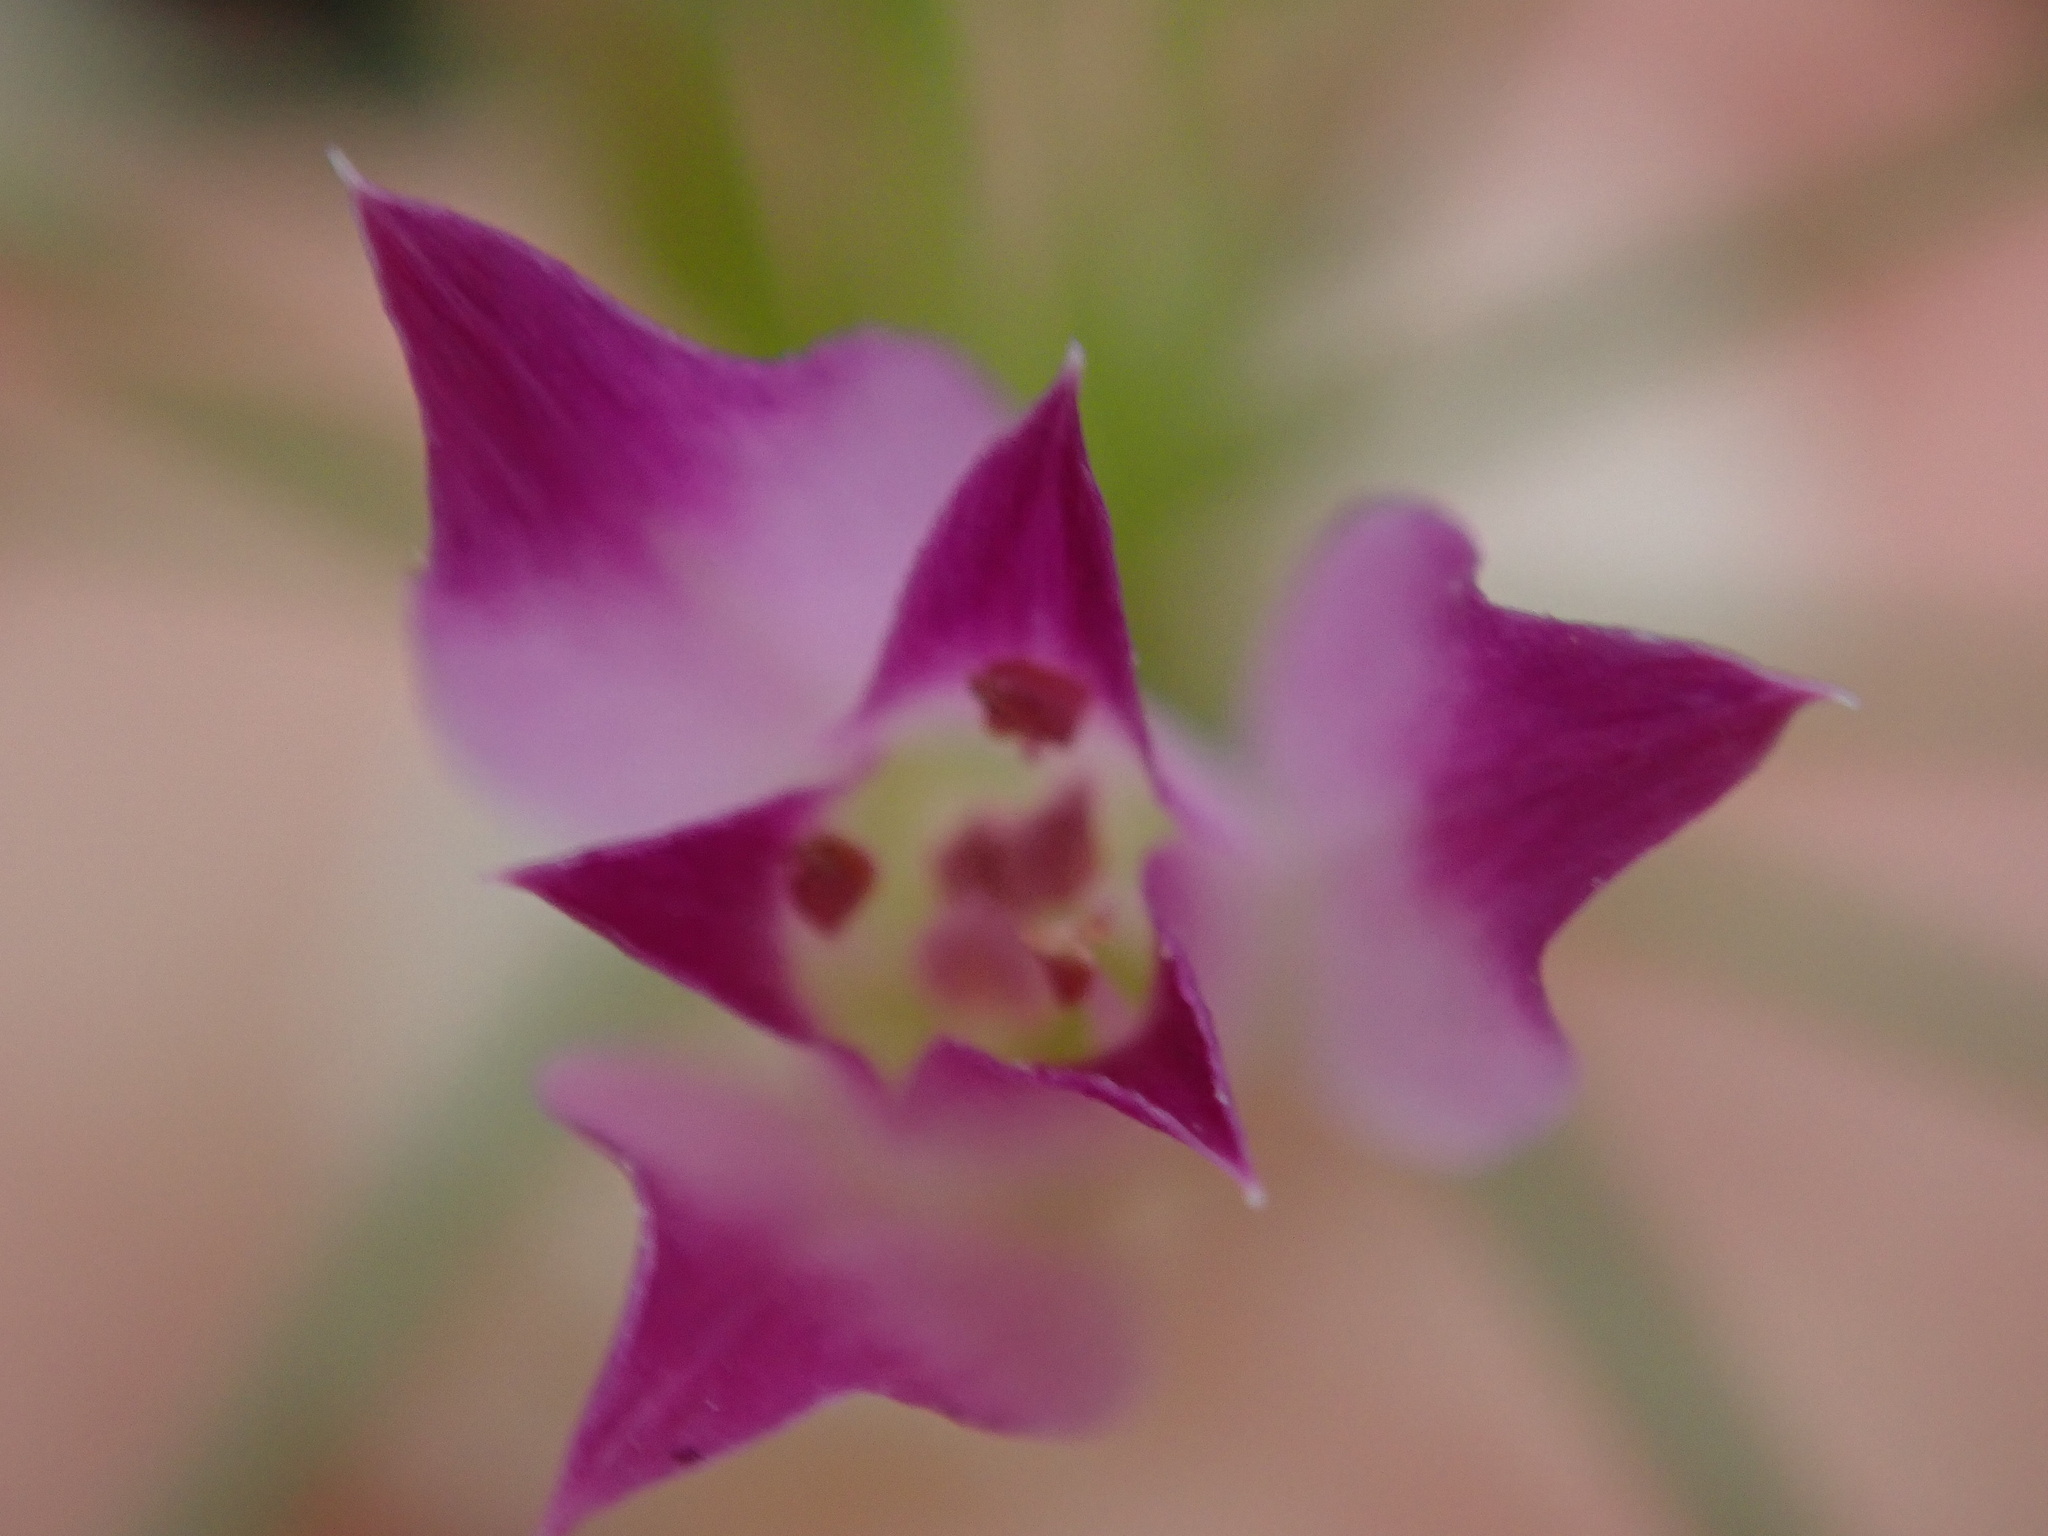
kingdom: Plantae
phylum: Tracheophyta
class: Liliopsida
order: Asparagales
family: Amaryllidaceae
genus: Allium
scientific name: Allium peninsulare
